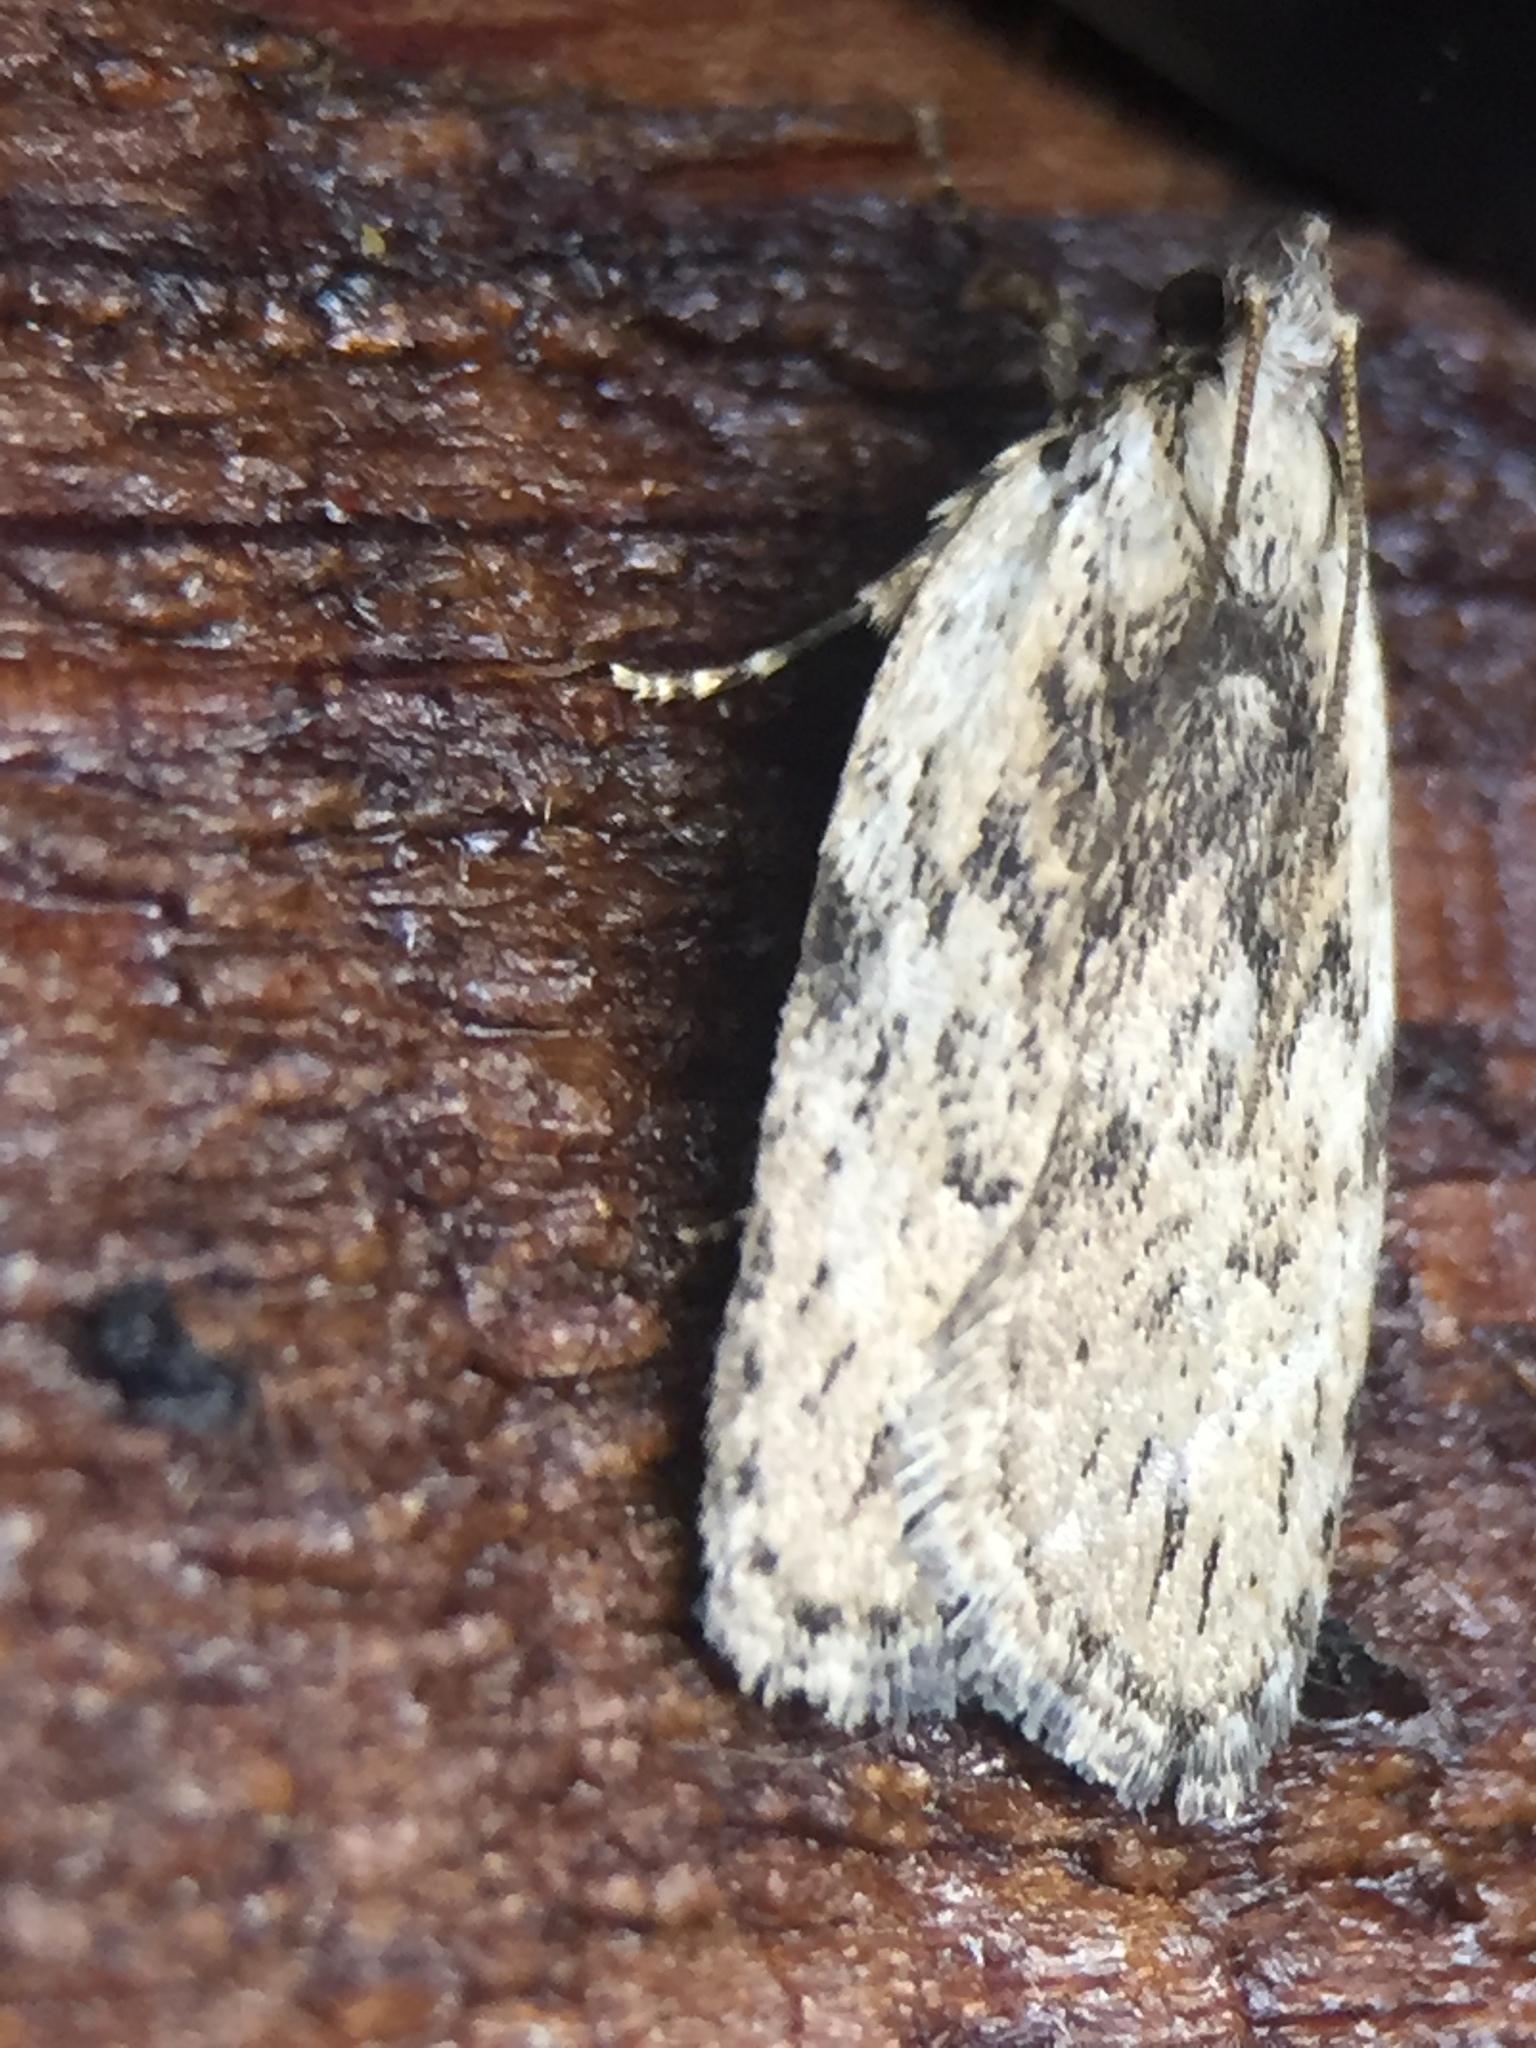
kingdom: Animalia
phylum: Arthropoda
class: Insecta
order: Lepidoptera
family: Depressariidae
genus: Phaeosaces
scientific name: Phaeosaces compsotypa
